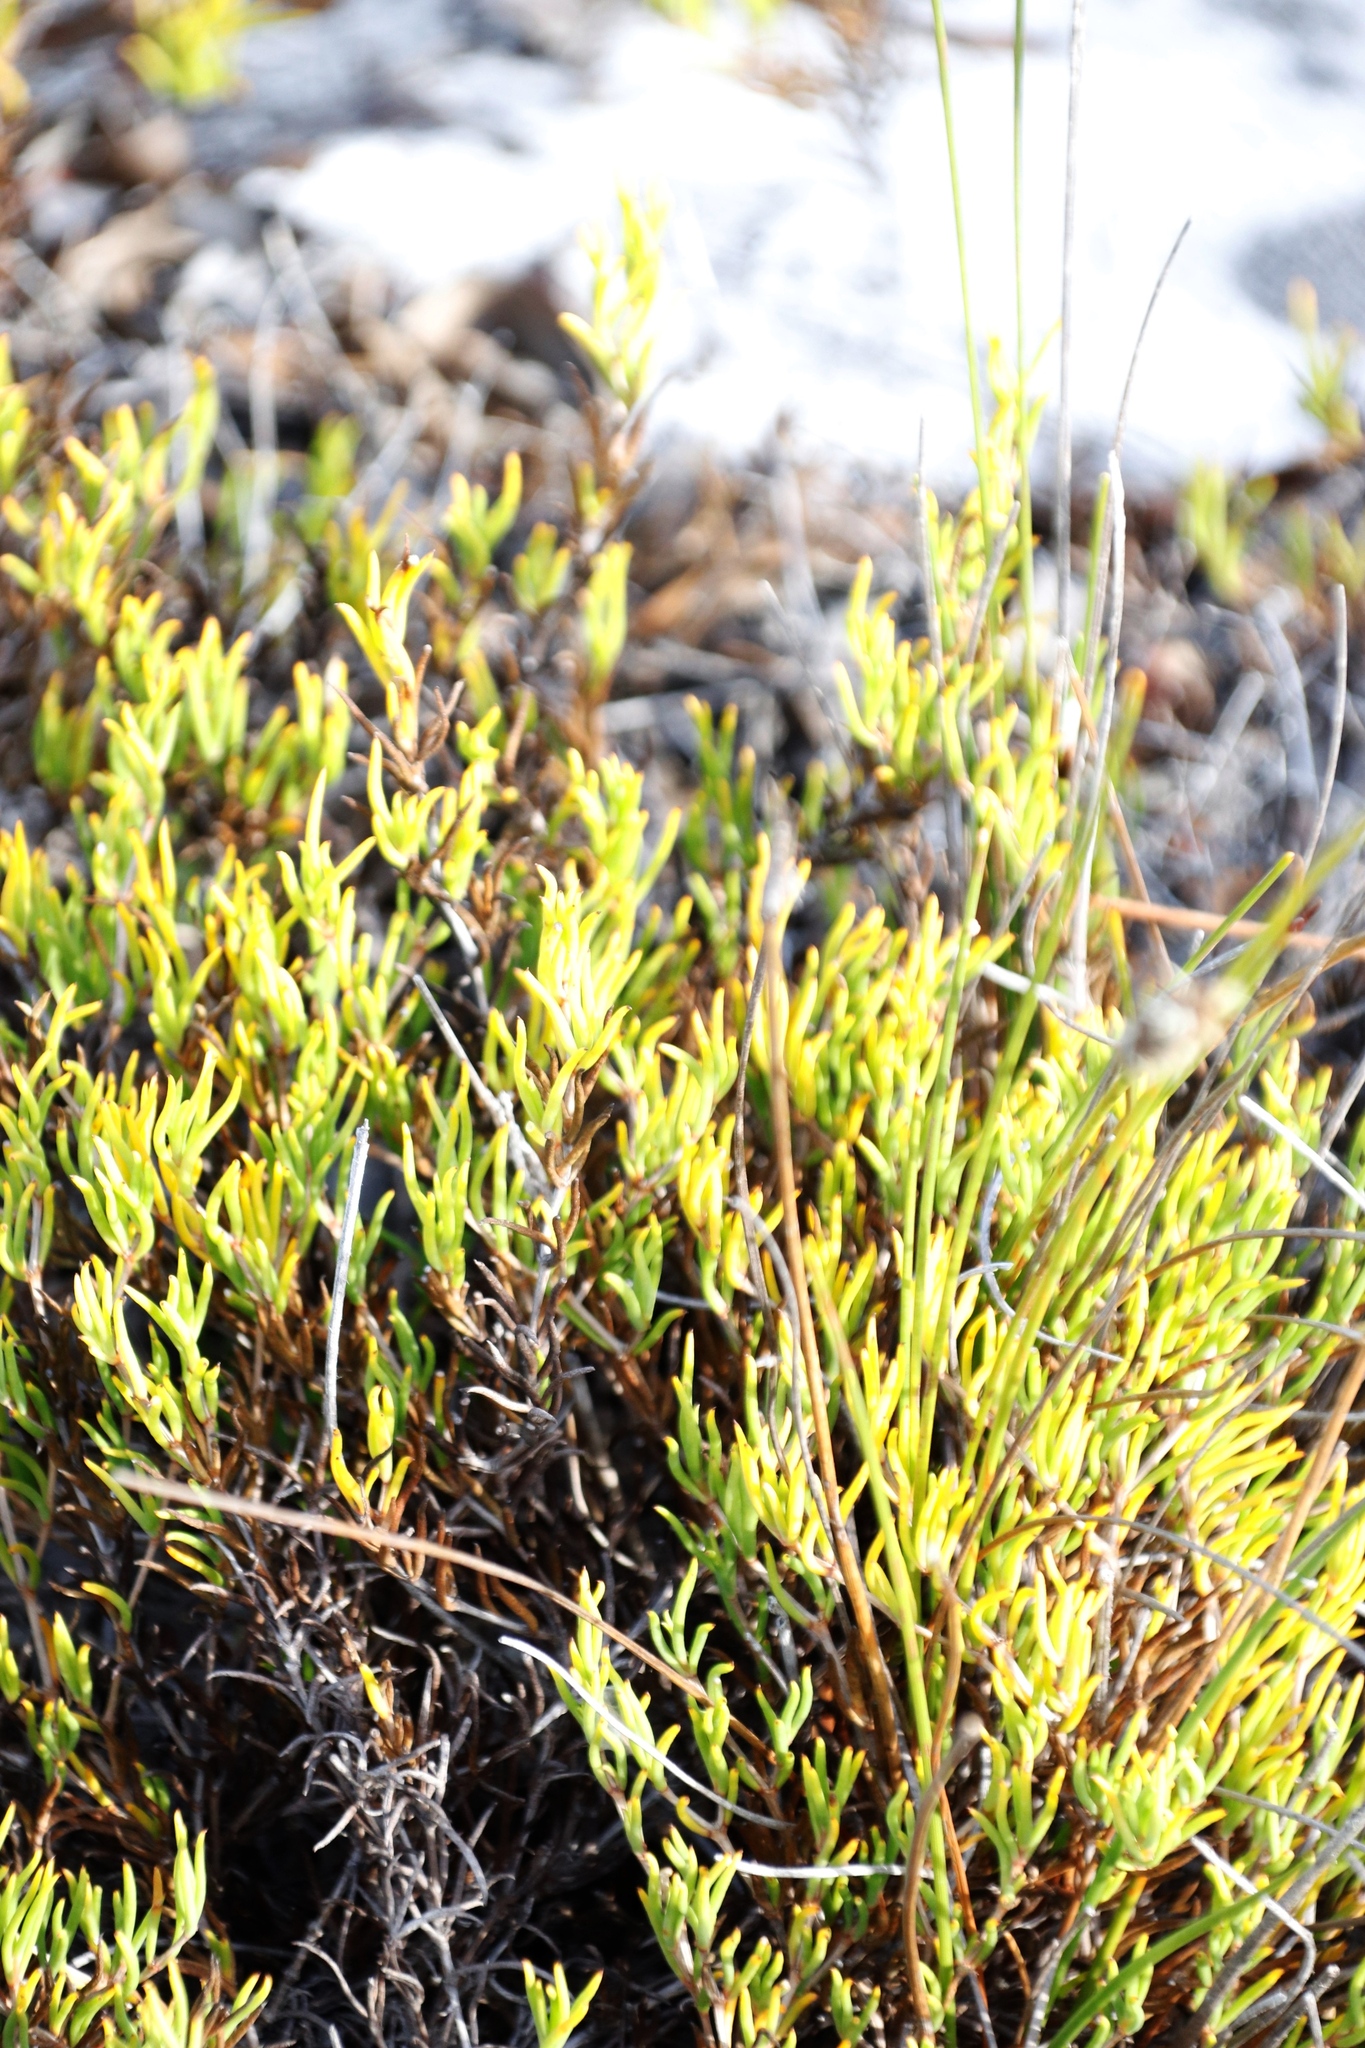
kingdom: Plantae
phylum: Tracheophyta
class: Magnoliopsida
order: Caryophyllales
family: Aizoaceae
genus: Acrosanthes
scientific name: Acrosanthes teretifolia
